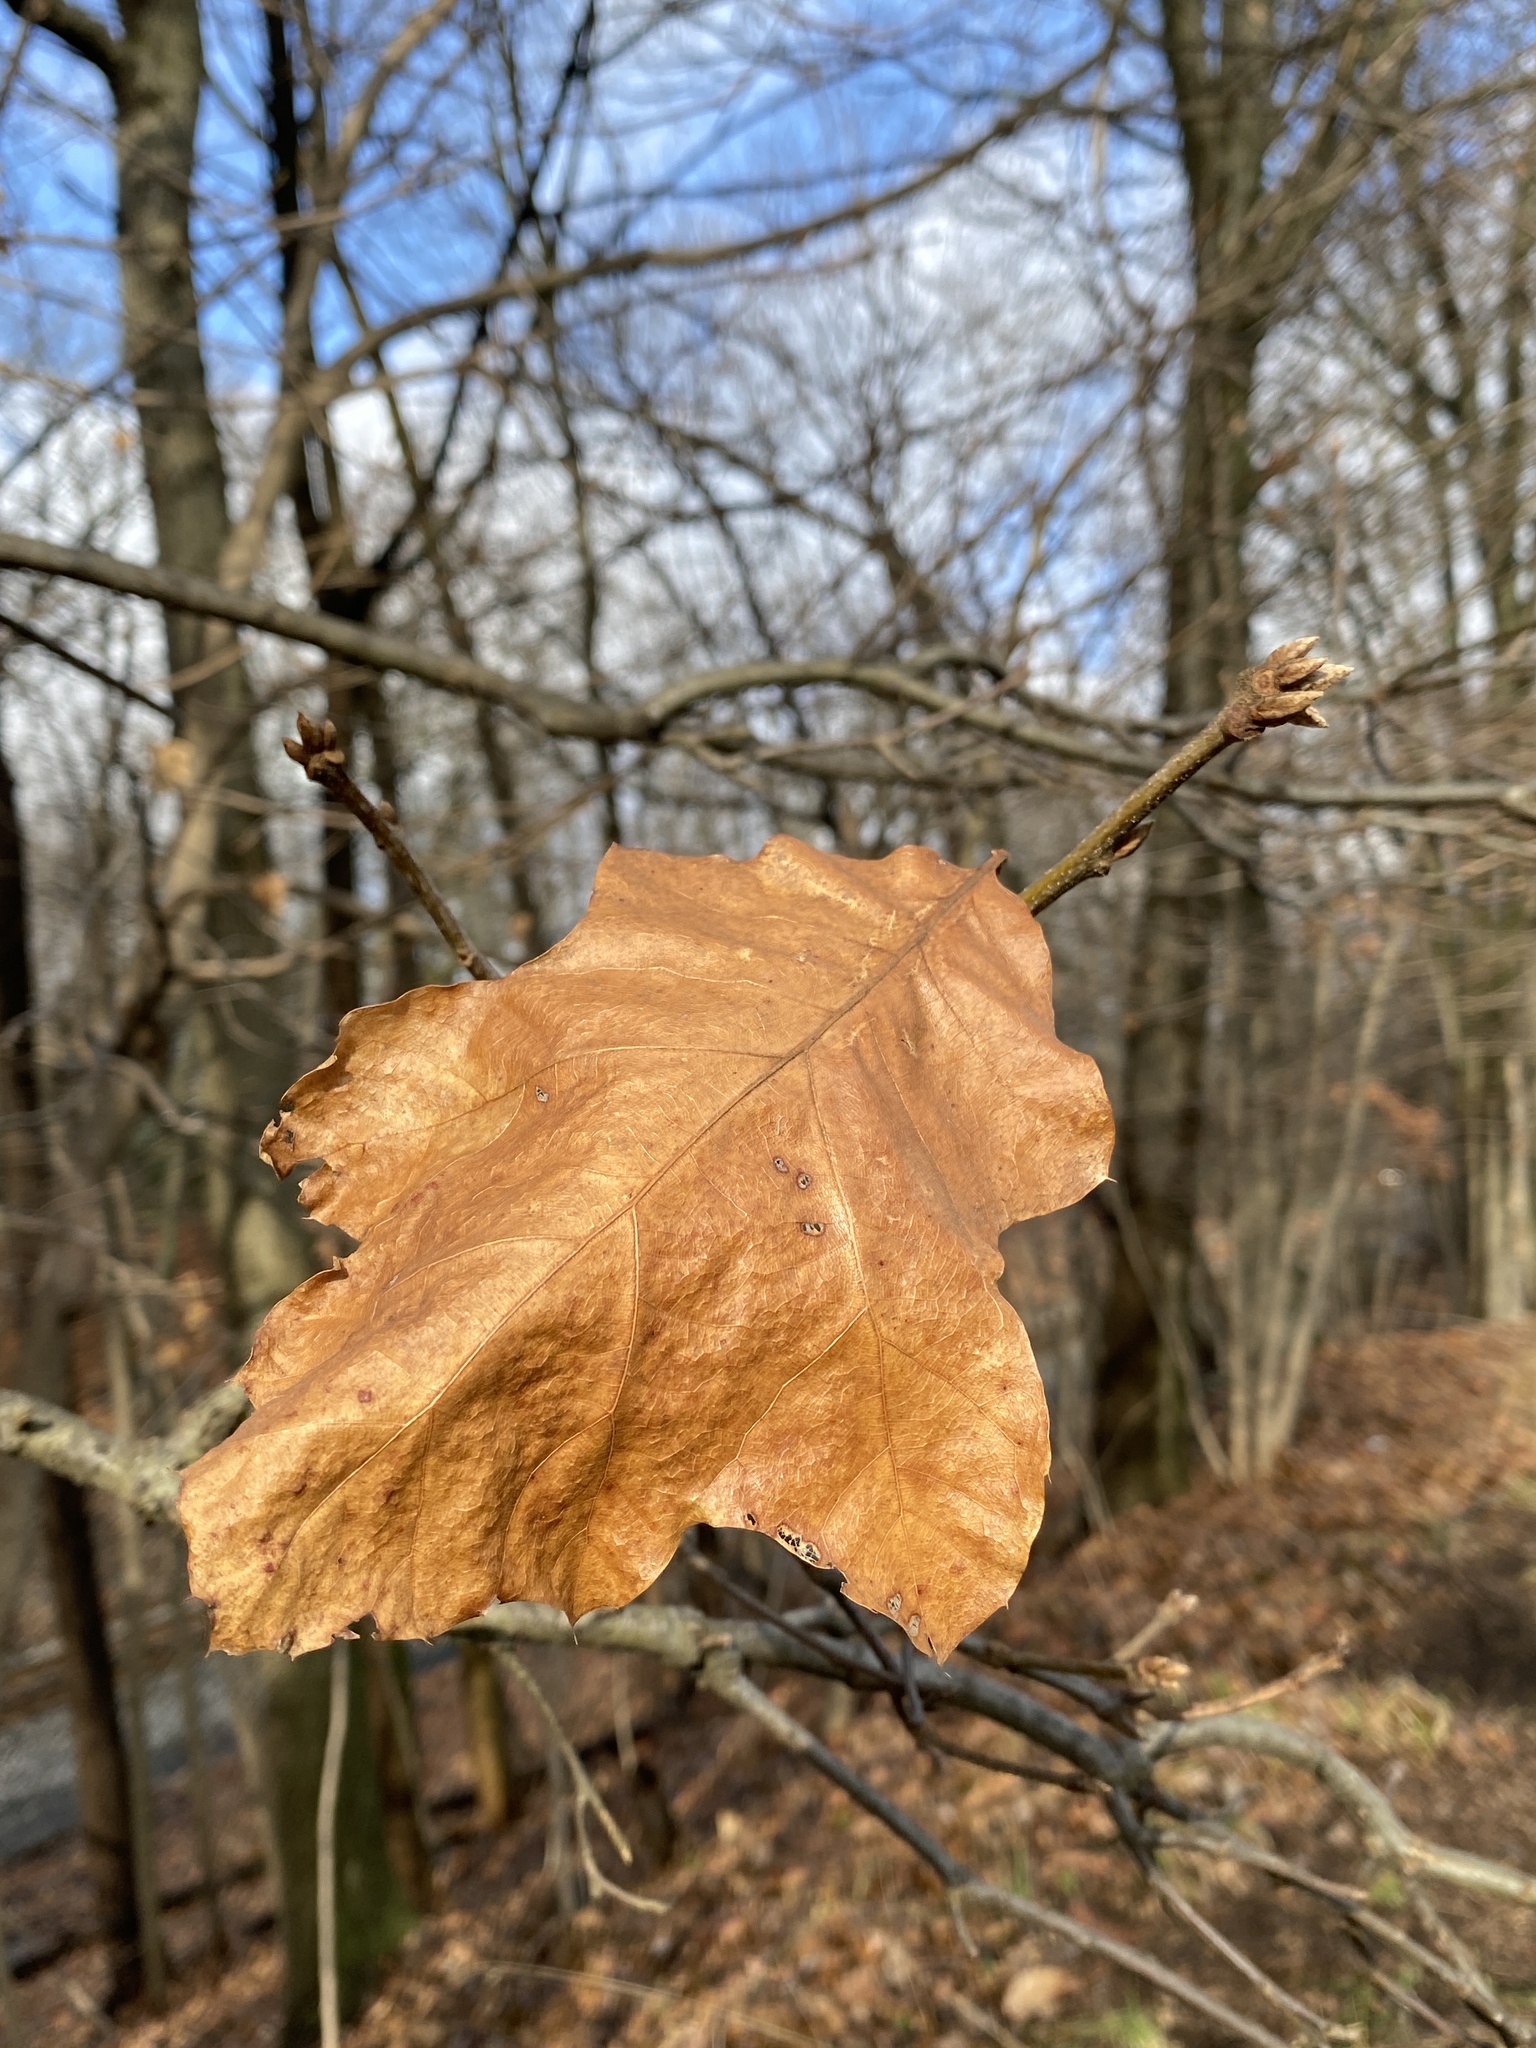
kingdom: Plantae
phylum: Tracheophyta
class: Magnoliopsida
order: Fagales
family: Fagaceae
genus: Quercus
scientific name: Quercus velutina
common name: Black oak
